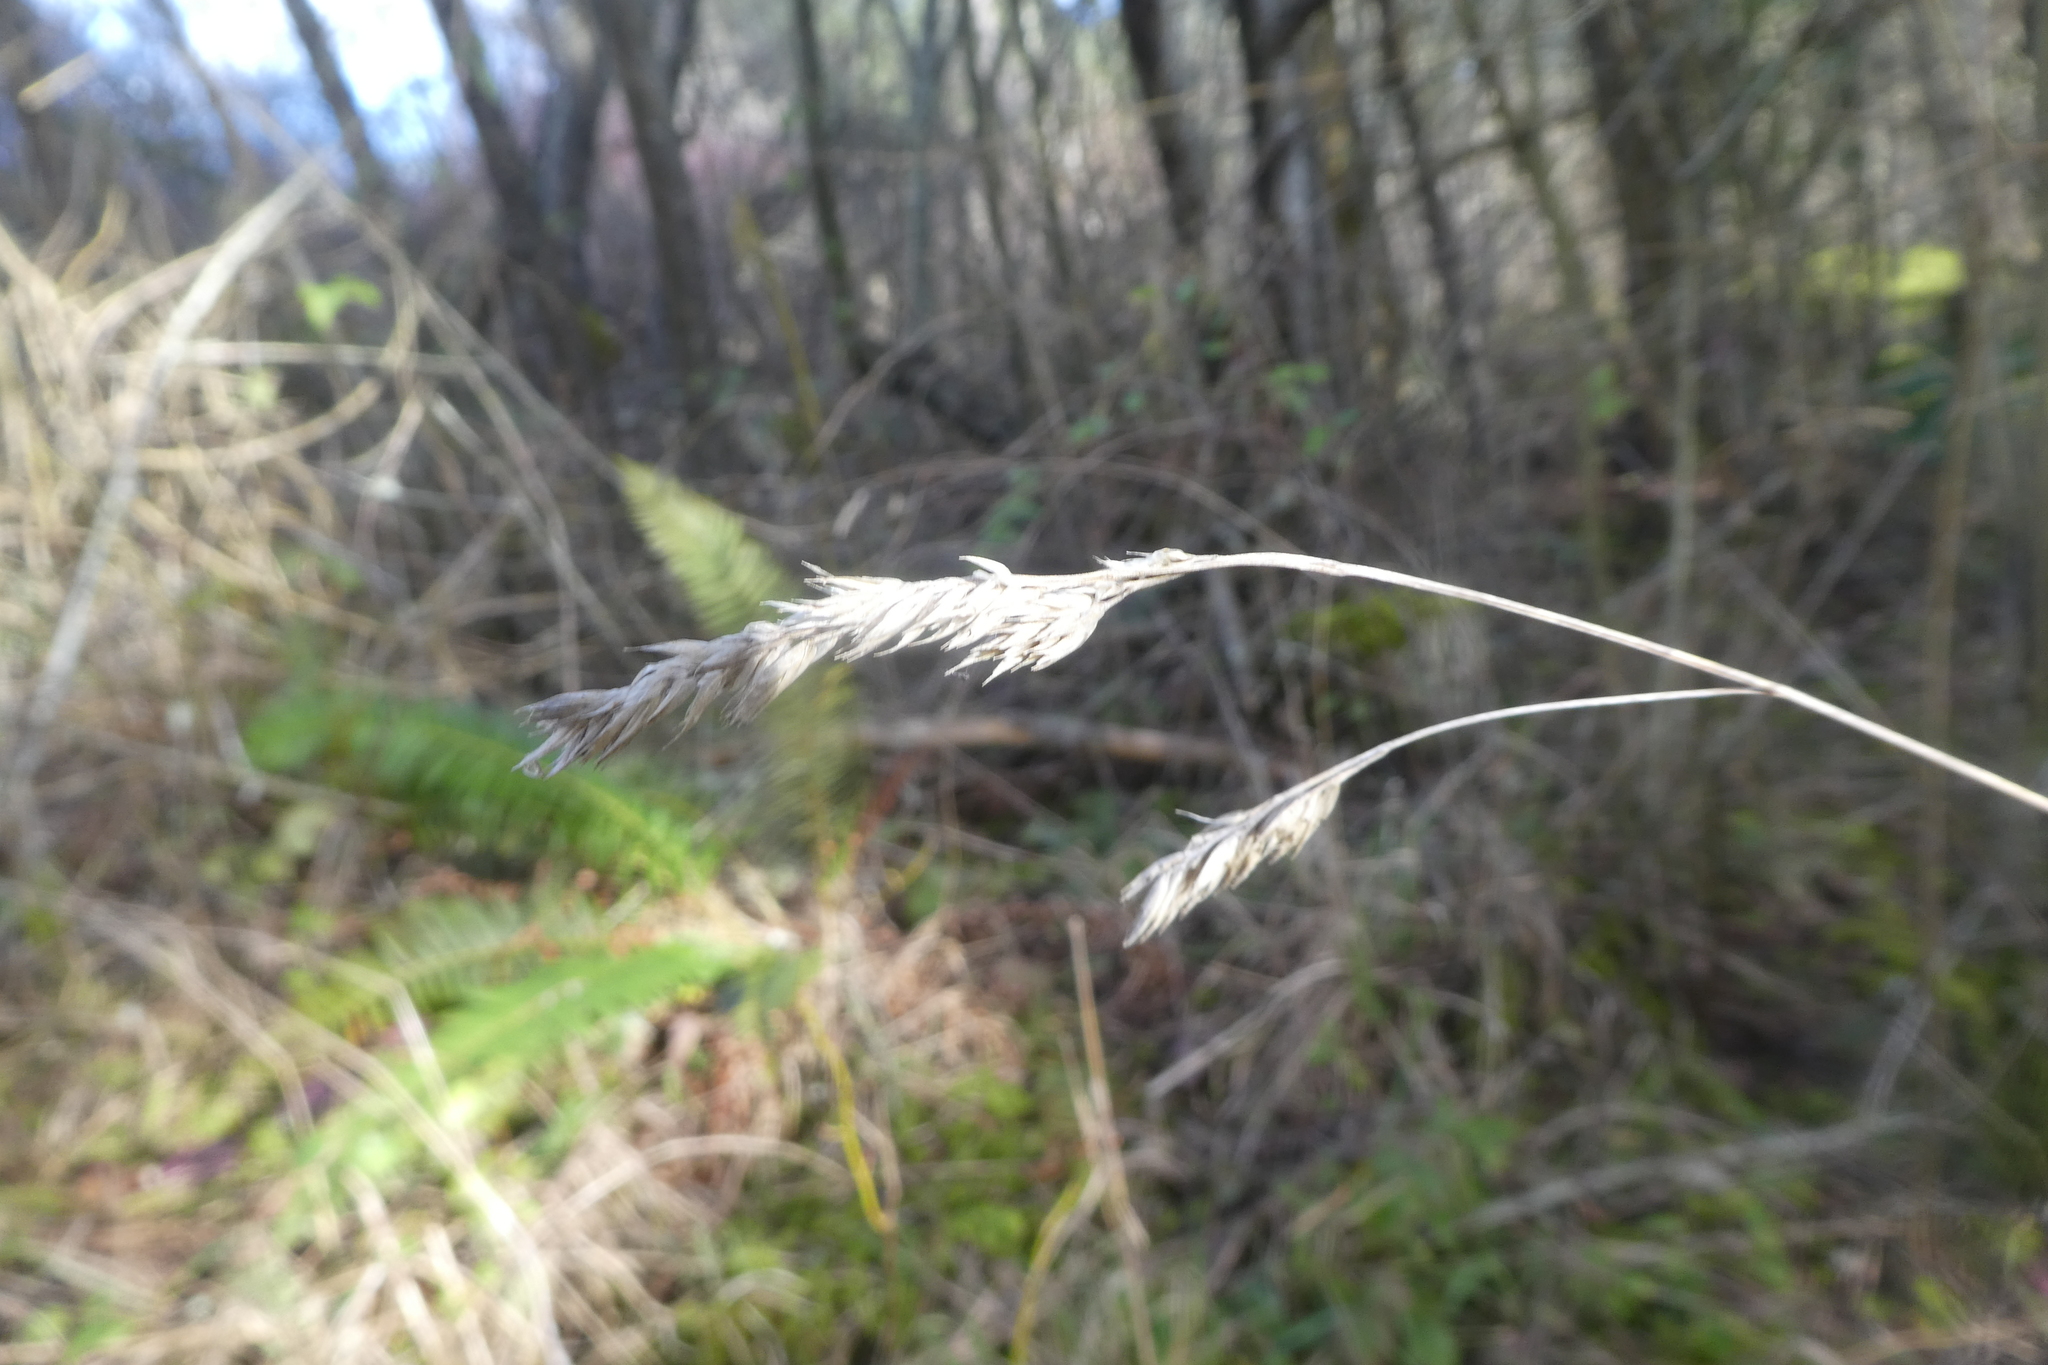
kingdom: Plantae
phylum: Tracheophyta
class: Liliopsida
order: Poales
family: Poaceae
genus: Dactylis
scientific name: Dactylis glomerata
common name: Orchardgrass
